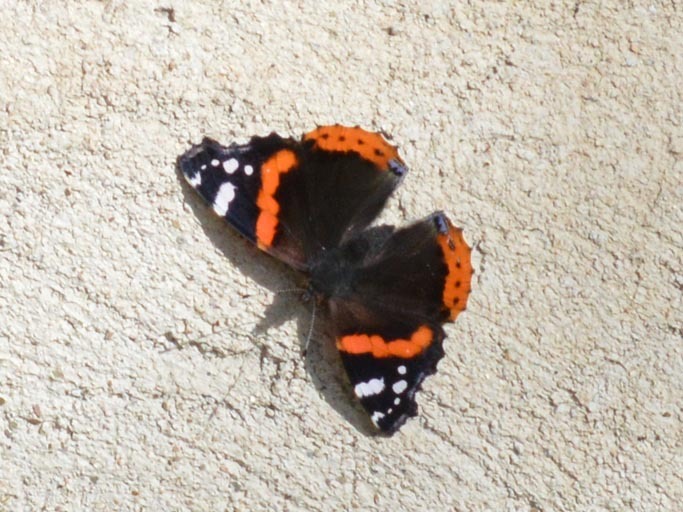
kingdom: Animalia
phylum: Arthropoda
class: Insecta
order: Lepidoptera
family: Nymphalidae
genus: Vanessa
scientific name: Vanessa atalanta
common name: Red admiral
